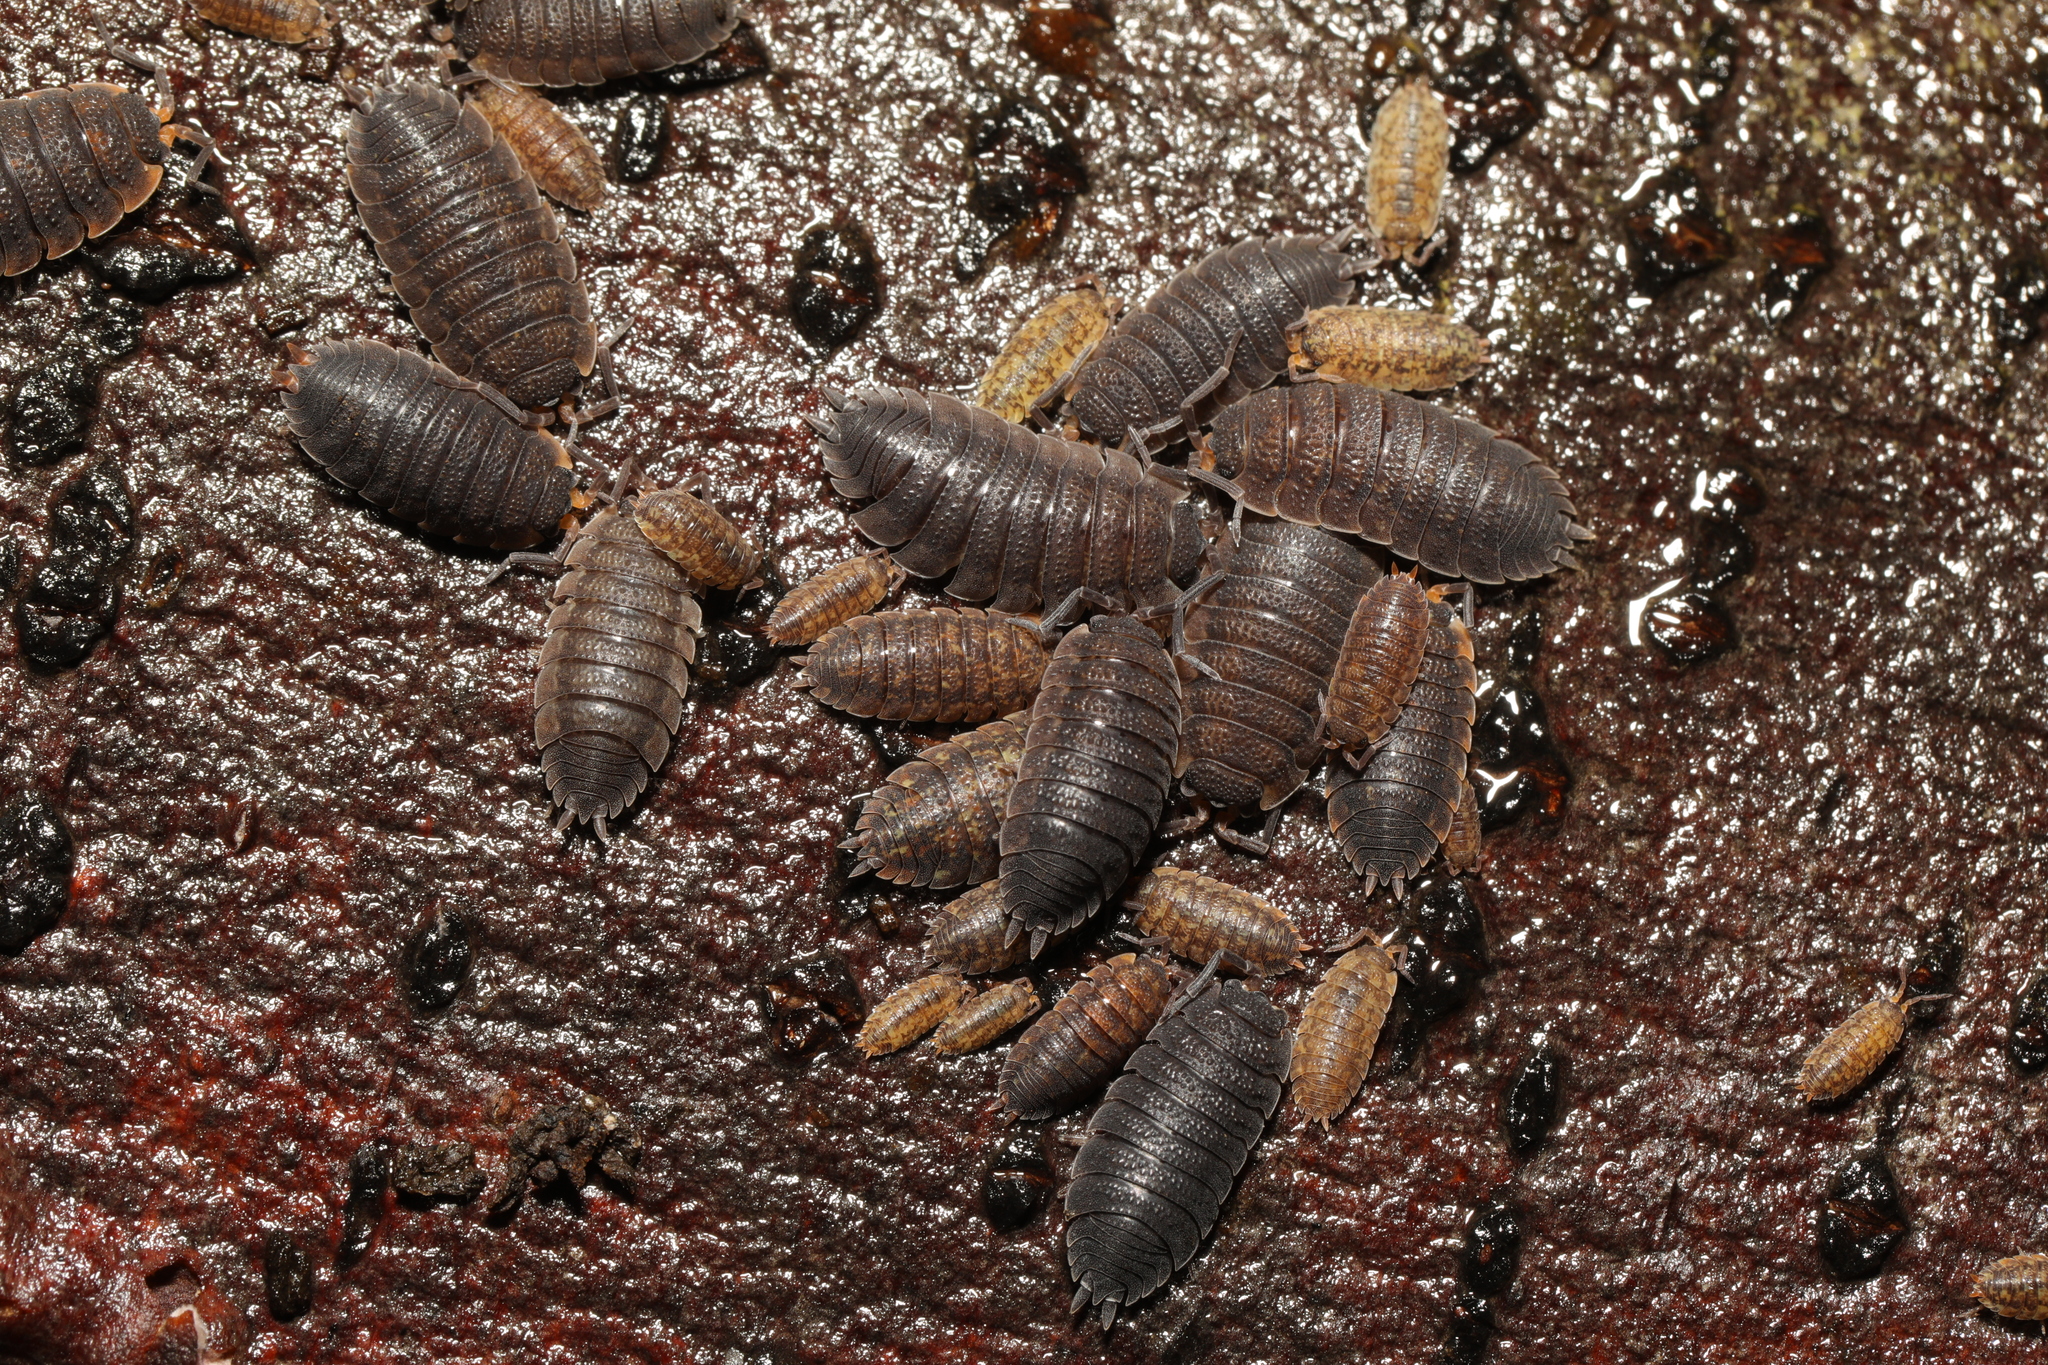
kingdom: Animalia
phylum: Arthropoda
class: Malacostraca
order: Isopoda
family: Porcellionidae
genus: Porcellio
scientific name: Porcellio scaber
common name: Common rough woodlouse
